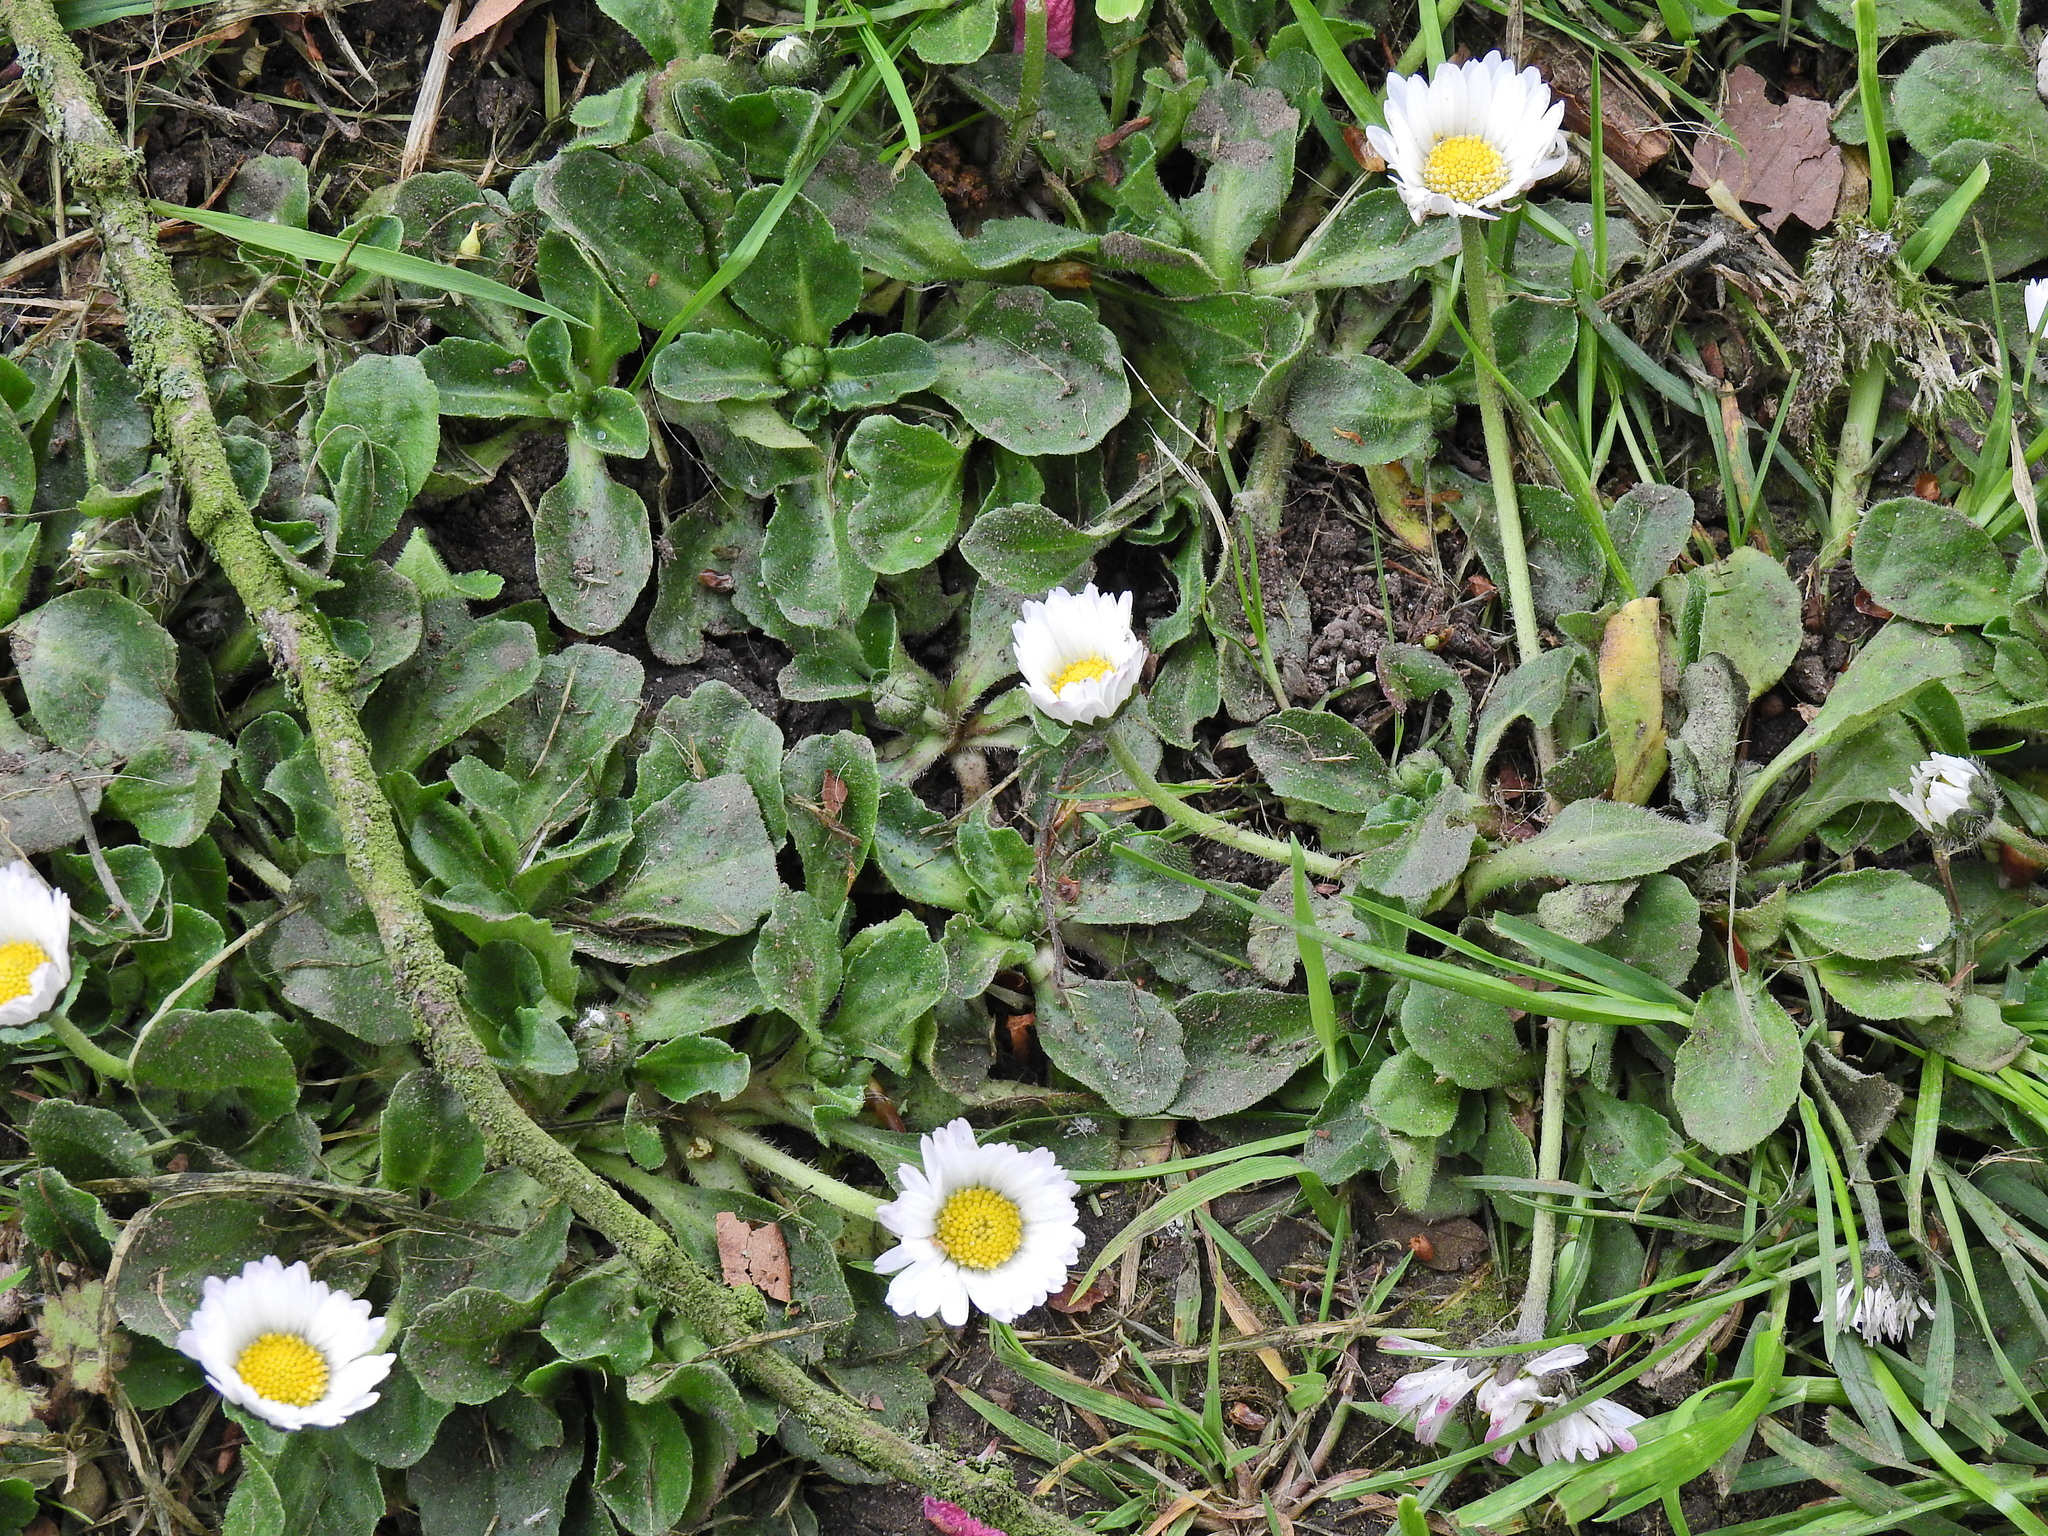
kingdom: Plantae
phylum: Tracheophyta
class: Magnoliopsida
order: Asterales
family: Asteraceae
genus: Bellis
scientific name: Bellis perennis
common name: Lawndaisy
